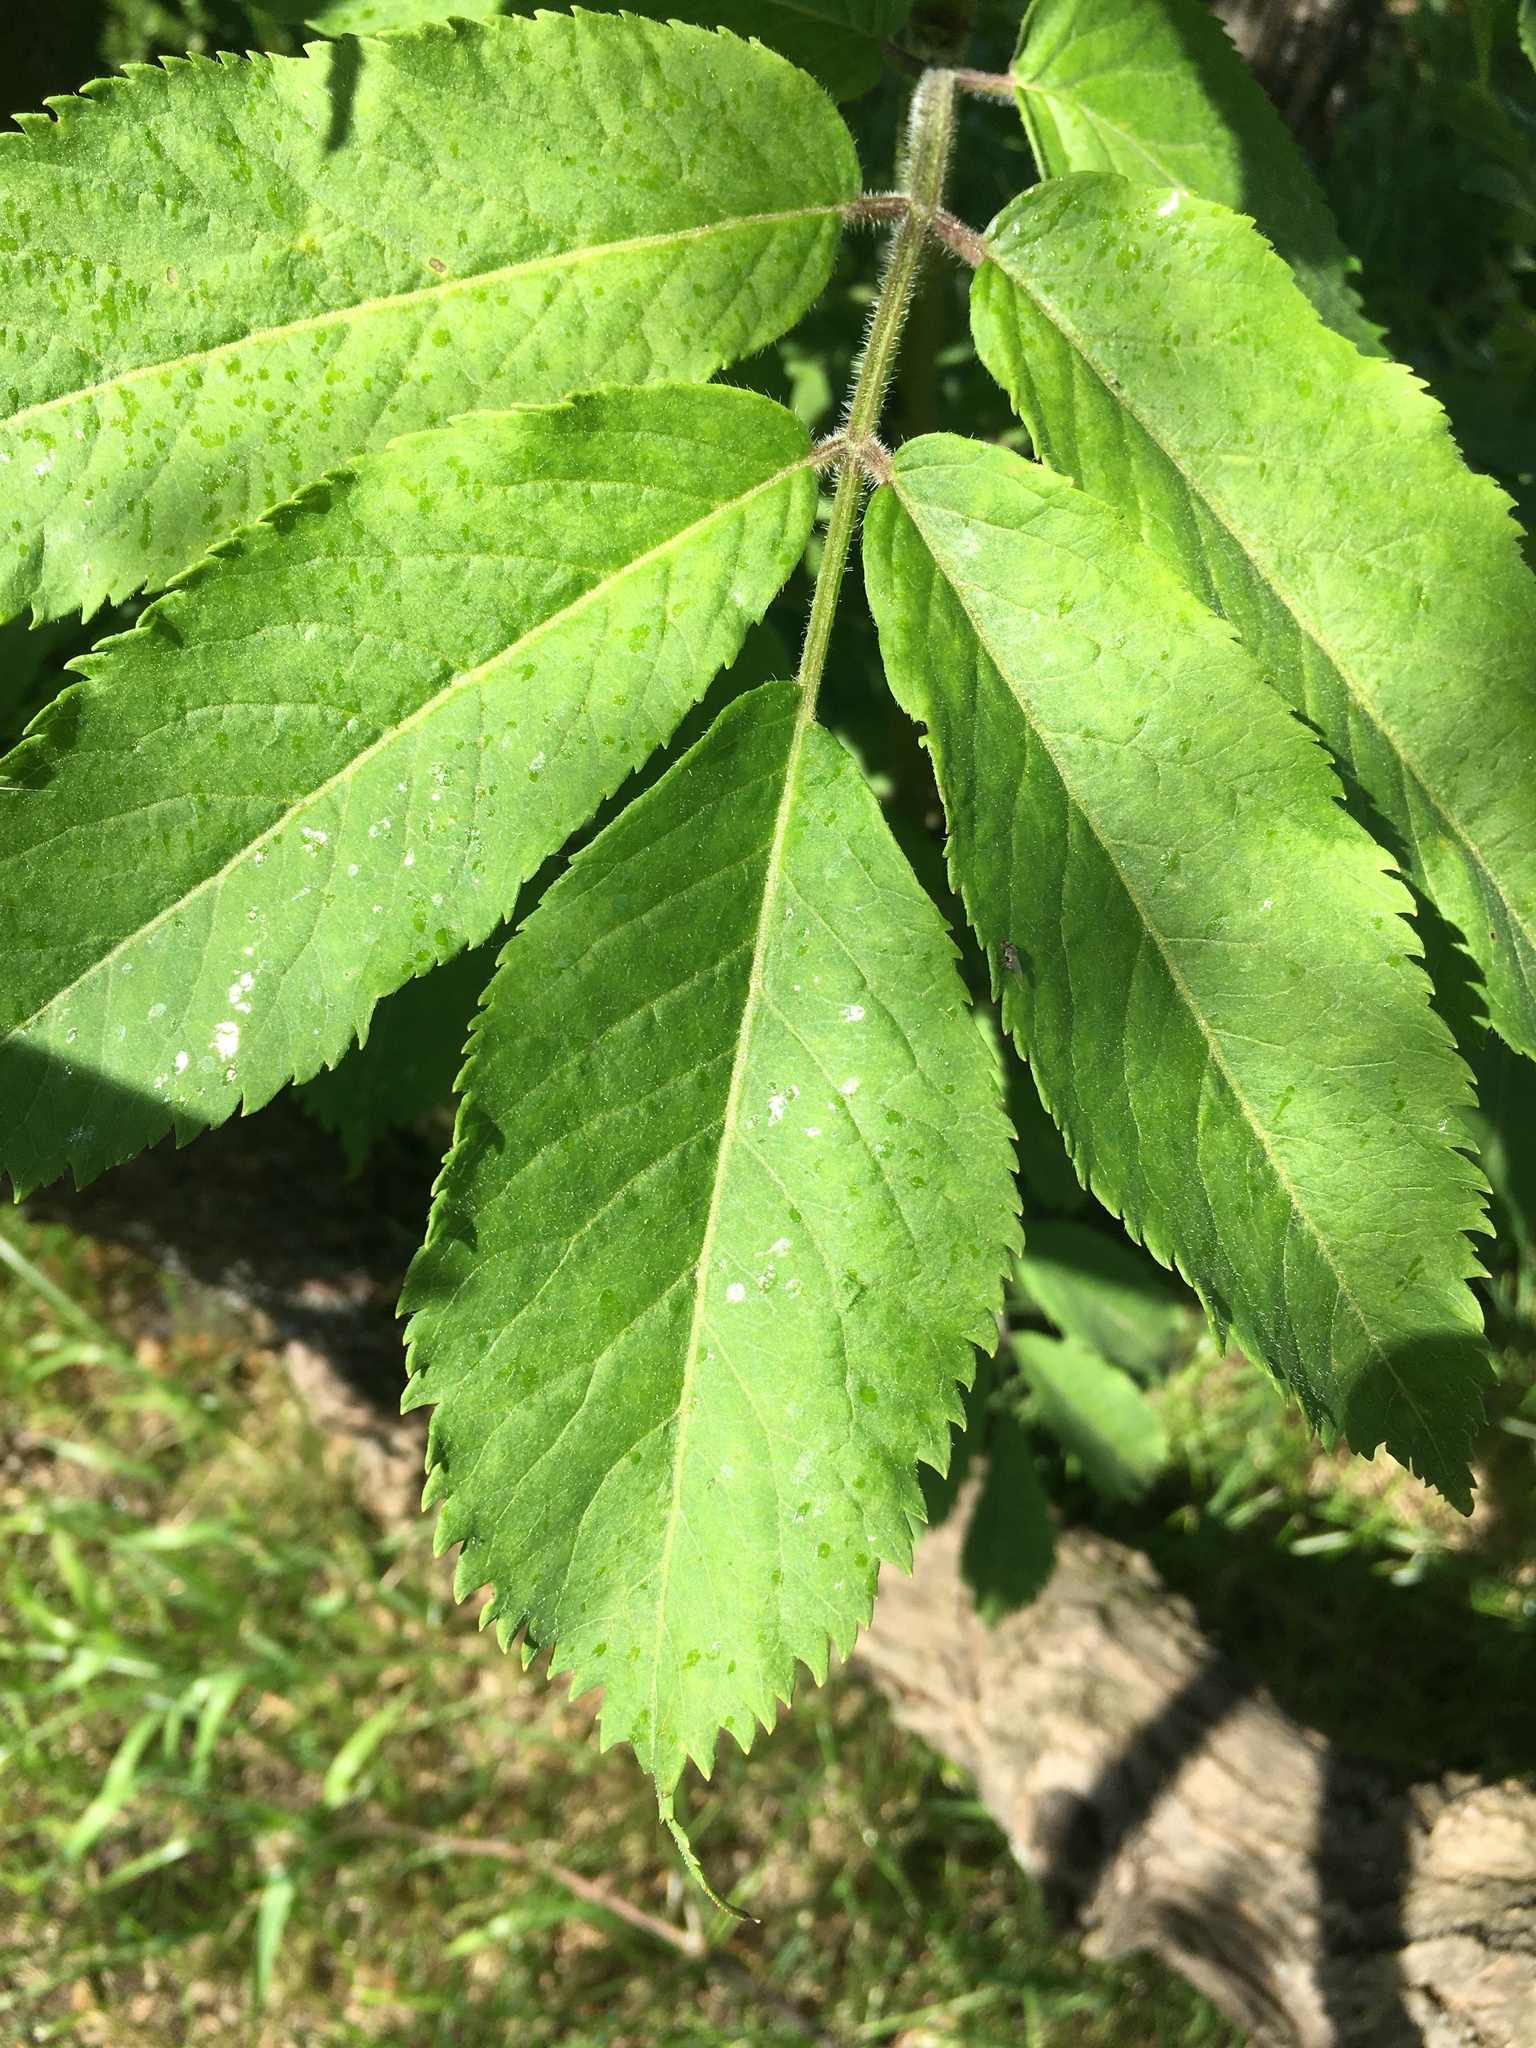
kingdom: Plantae
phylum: Tracheophyta
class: Magnoliopsida
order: Dipsacales
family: Viburnaceae
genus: Sambucus
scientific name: Sambucus racemosa
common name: Red-berried elder
